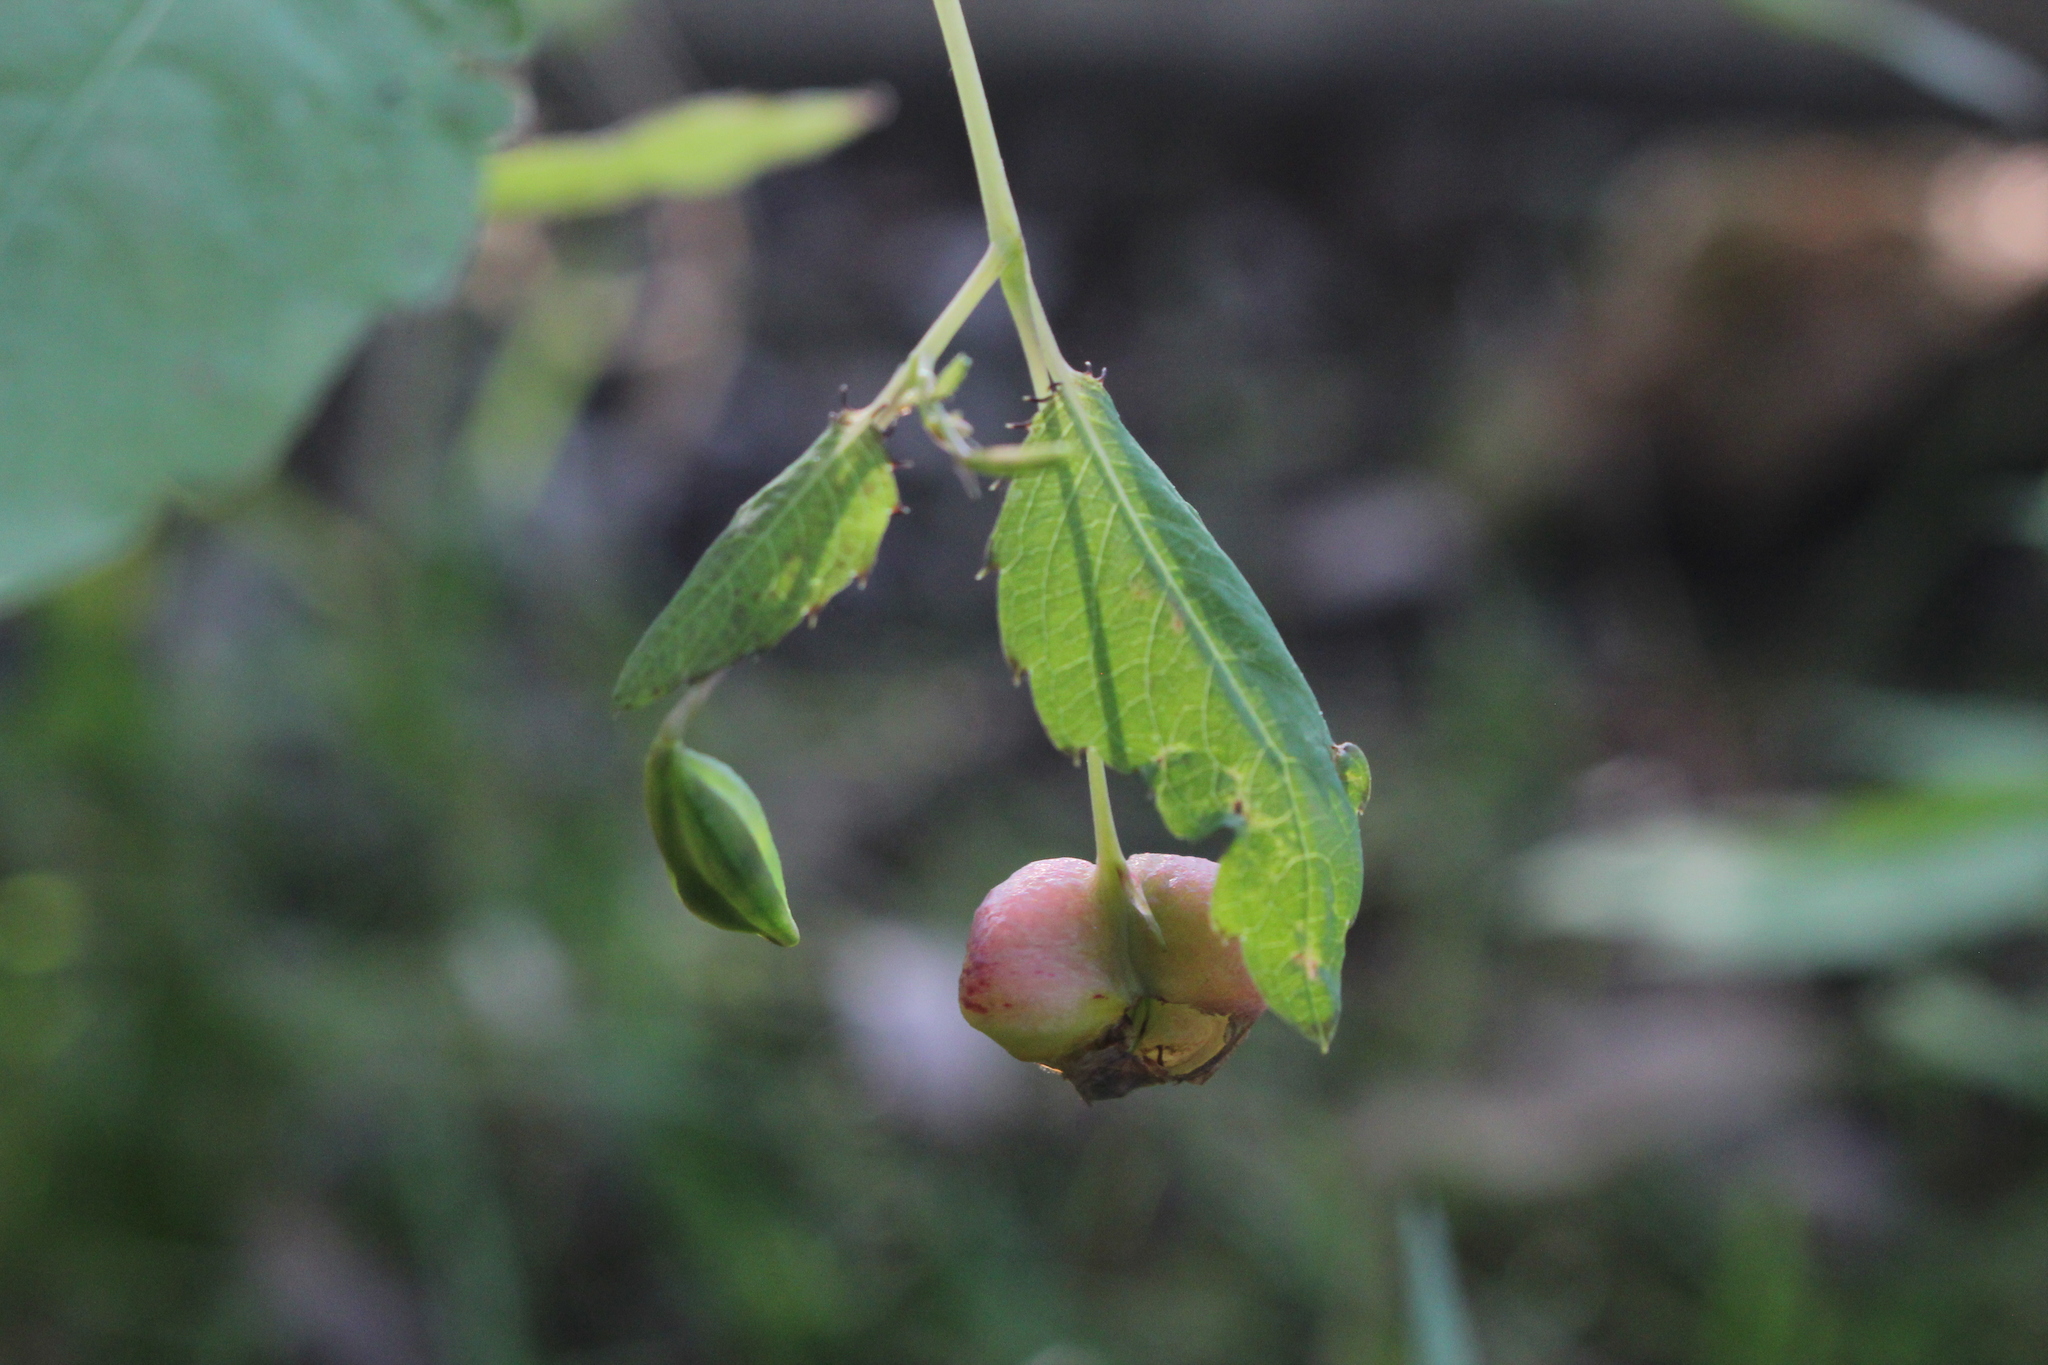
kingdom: Animalia
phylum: Arthropoda
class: Insecta
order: Diptera
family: Cecidomyiidae
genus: Schizomyia
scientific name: Schizomyia impatientis
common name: Jewelweed gall midge
